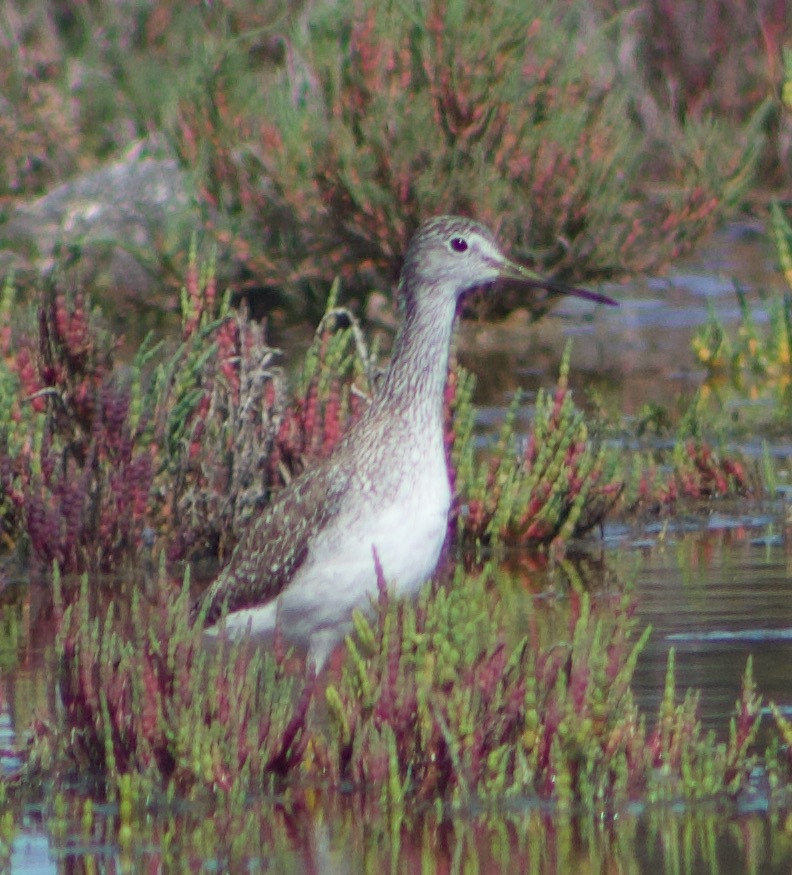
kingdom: Animalia
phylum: Chordata
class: Aves
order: Charadriiformes
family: Scolopacidae
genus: Tringa
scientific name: Tringa melanoleuca
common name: Greater yellowlegs
